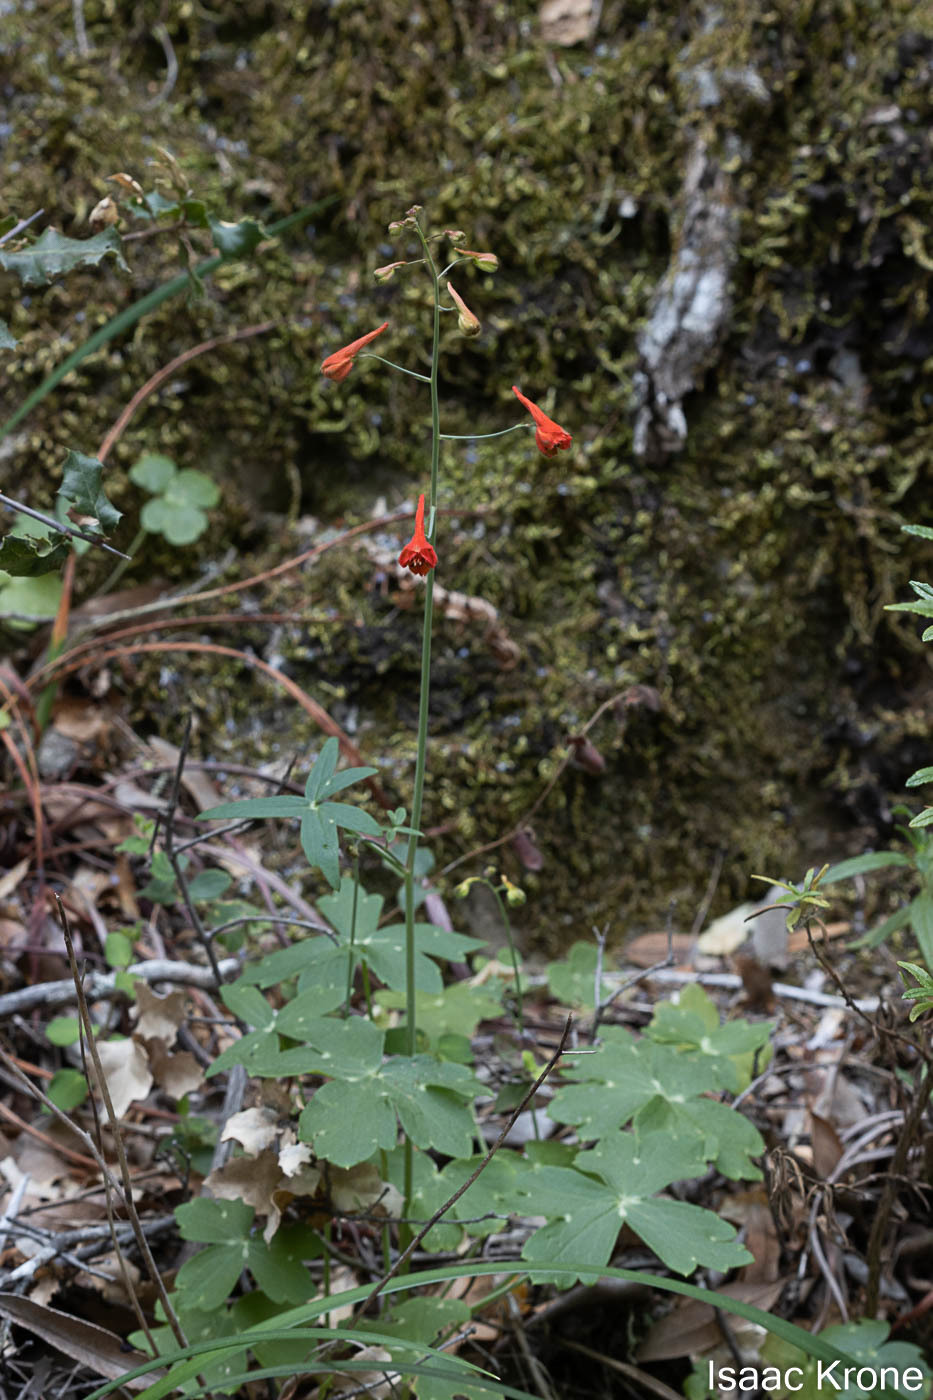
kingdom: Plantae
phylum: Tracheophyta
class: Magnoliopsida
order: Ranunculales
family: Ranunculaceae
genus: Delphinium
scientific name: Delphinium nudicaule
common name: Red larkspur
